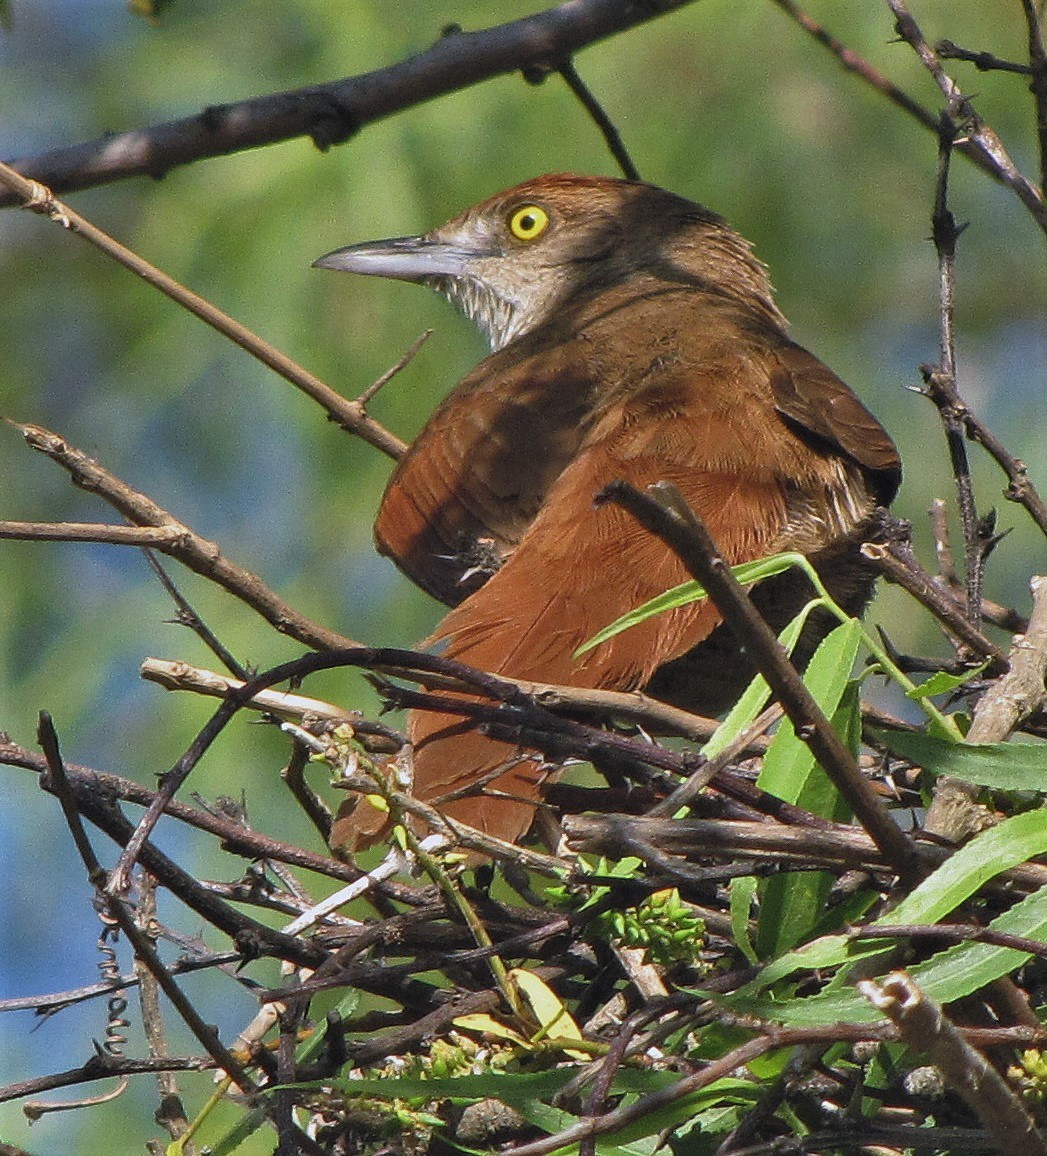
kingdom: Animalia
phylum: Chordata
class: Aves
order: Passeriformes
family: Furnariidae
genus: Phacellodomus
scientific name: Phacellodomus ruber
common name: Greater thornbird
